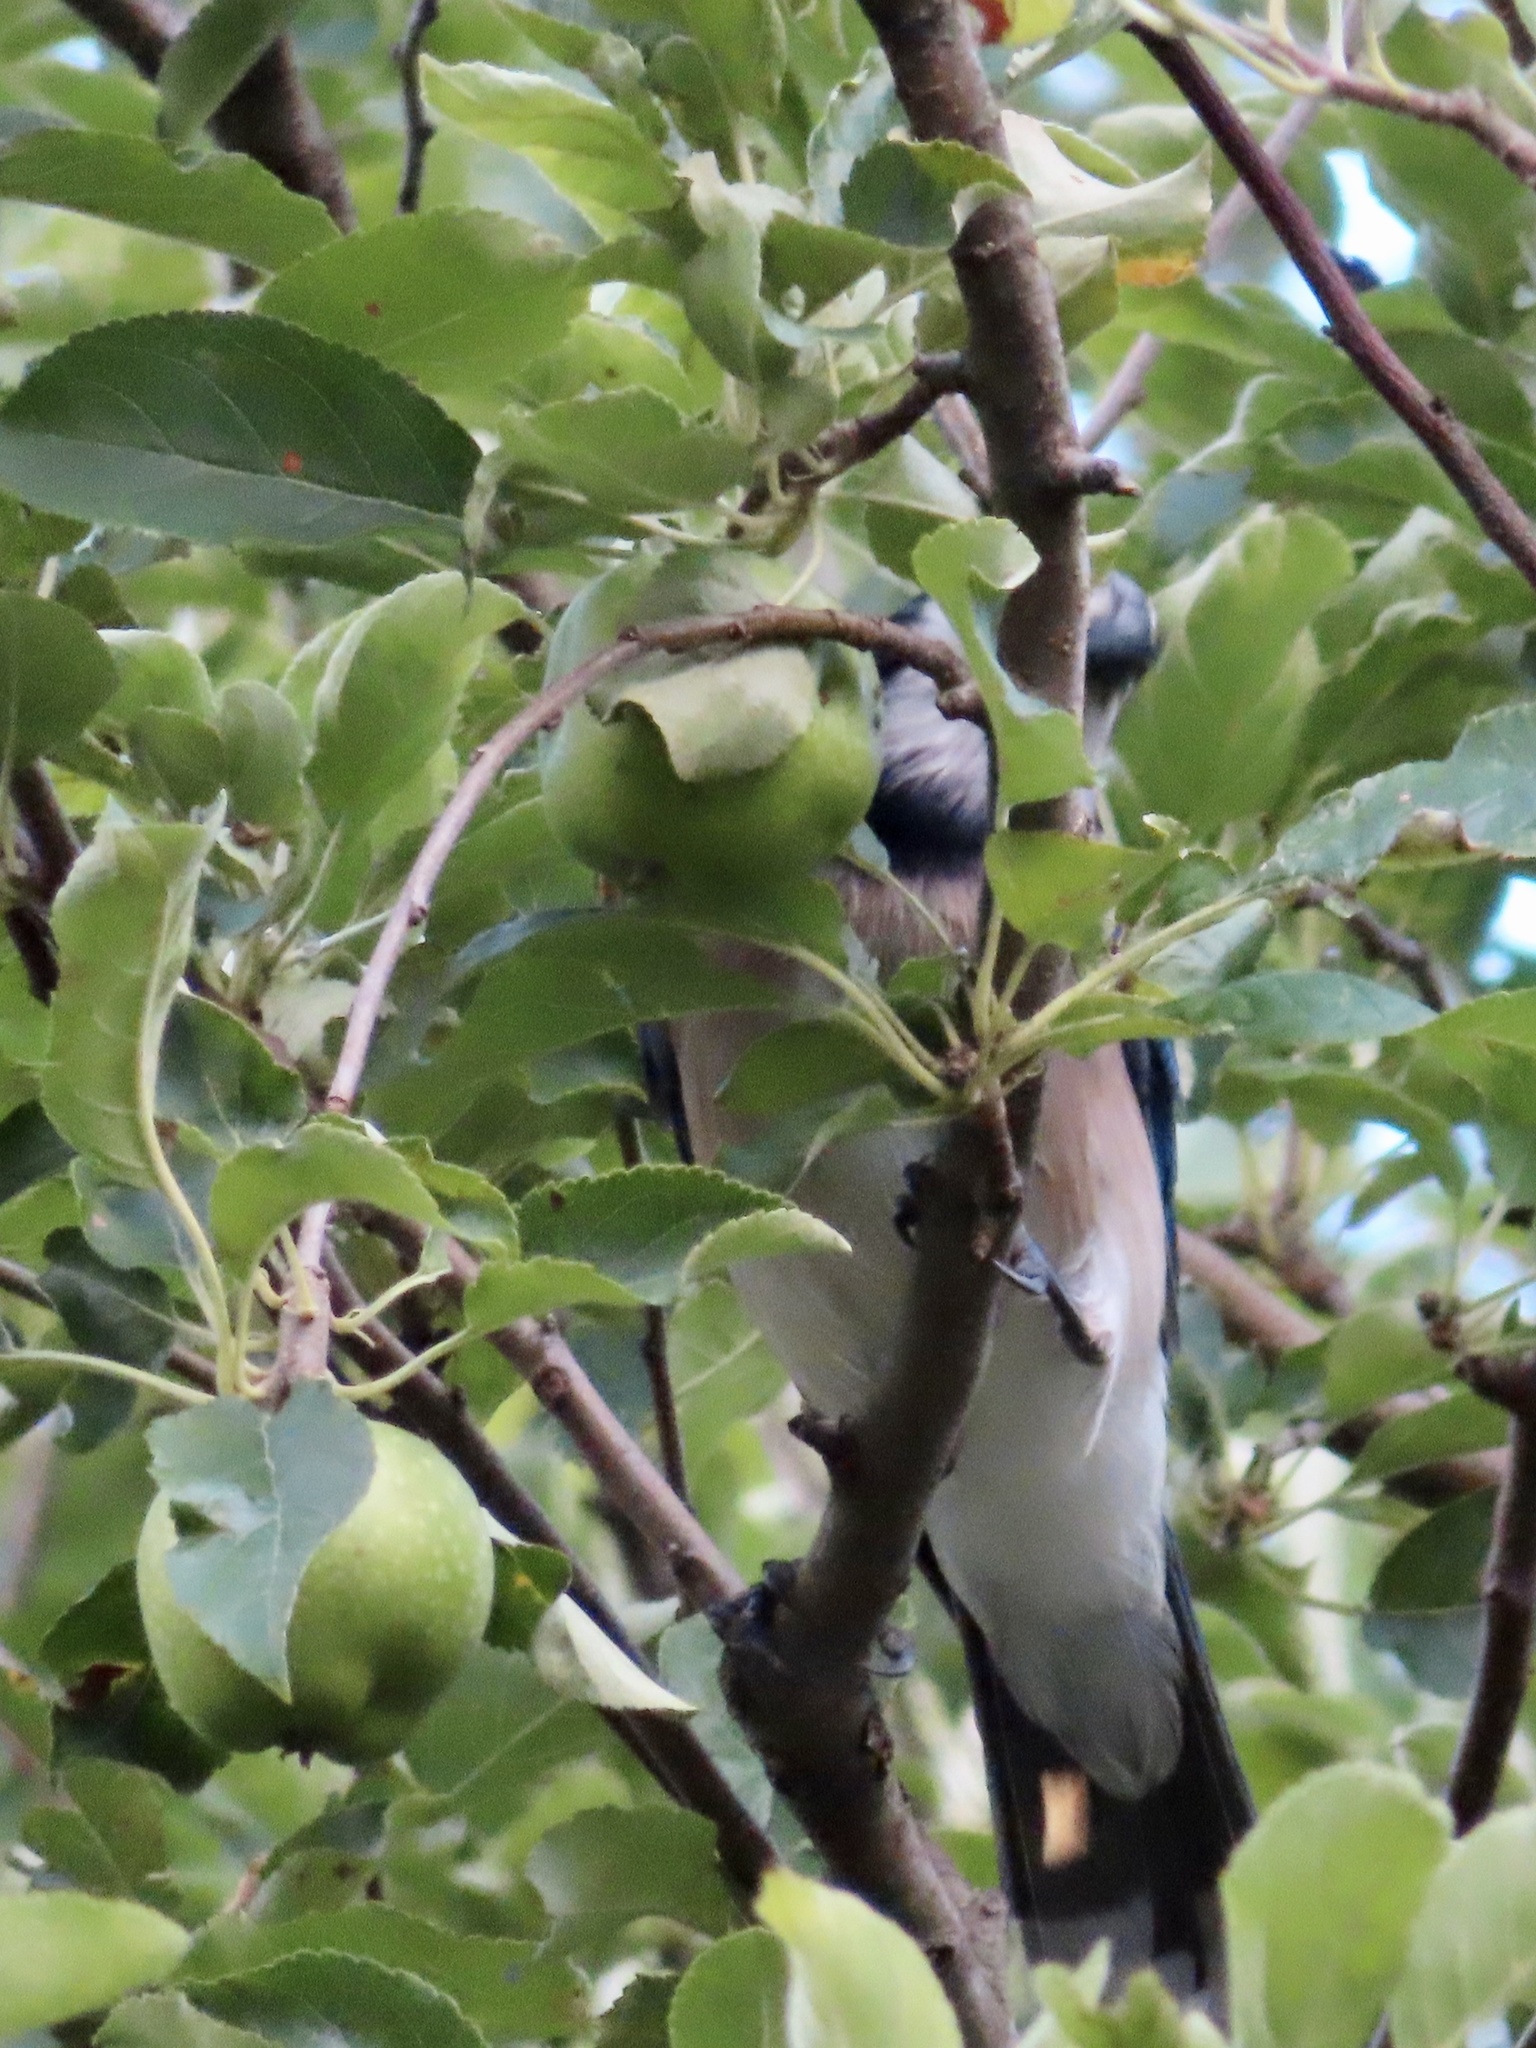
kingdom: Animalia
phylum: Chordata
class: Aves
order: Passeriformes
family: Corvidae
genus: Cyanocitta
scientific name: Cyanocitta cristata
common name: Blue jay
